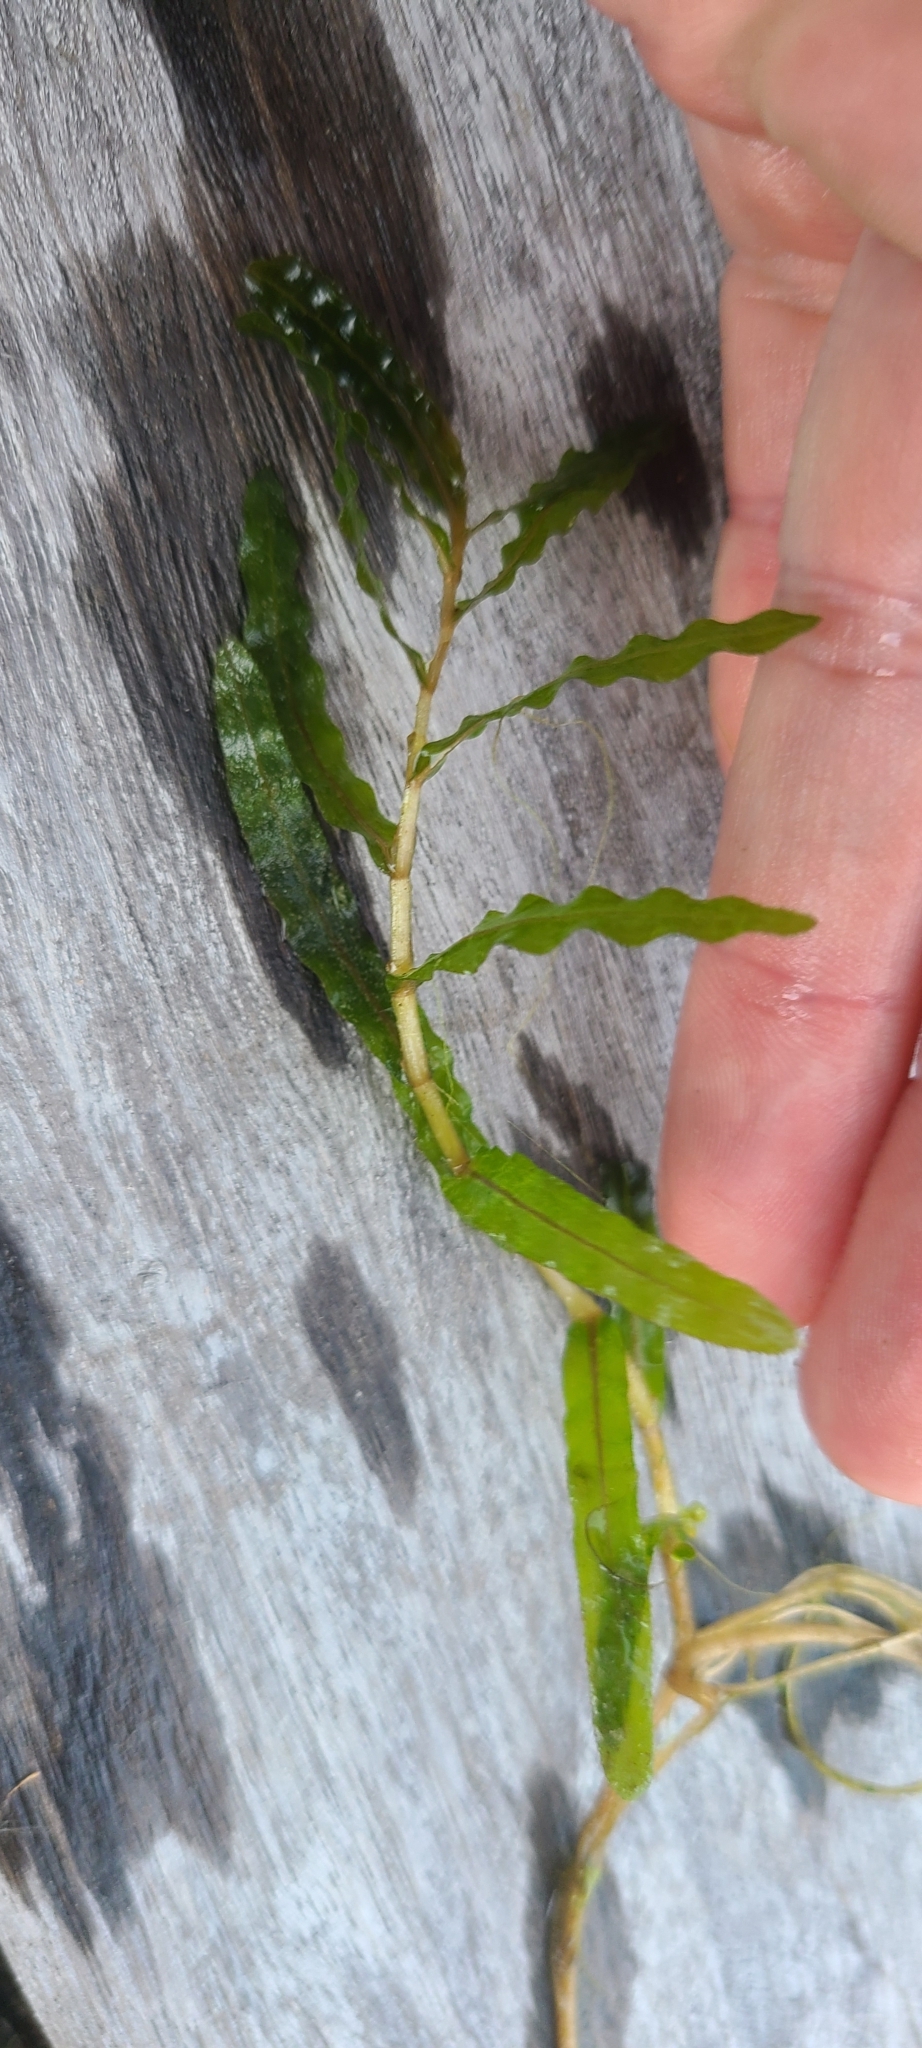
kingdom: Plantae
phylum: Tracheophyta
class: Liliopsida
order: Alismatales
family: Potamogetonaceae
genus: Potamogeton
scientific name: Potamogeton crispus
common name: Curled pondweed
